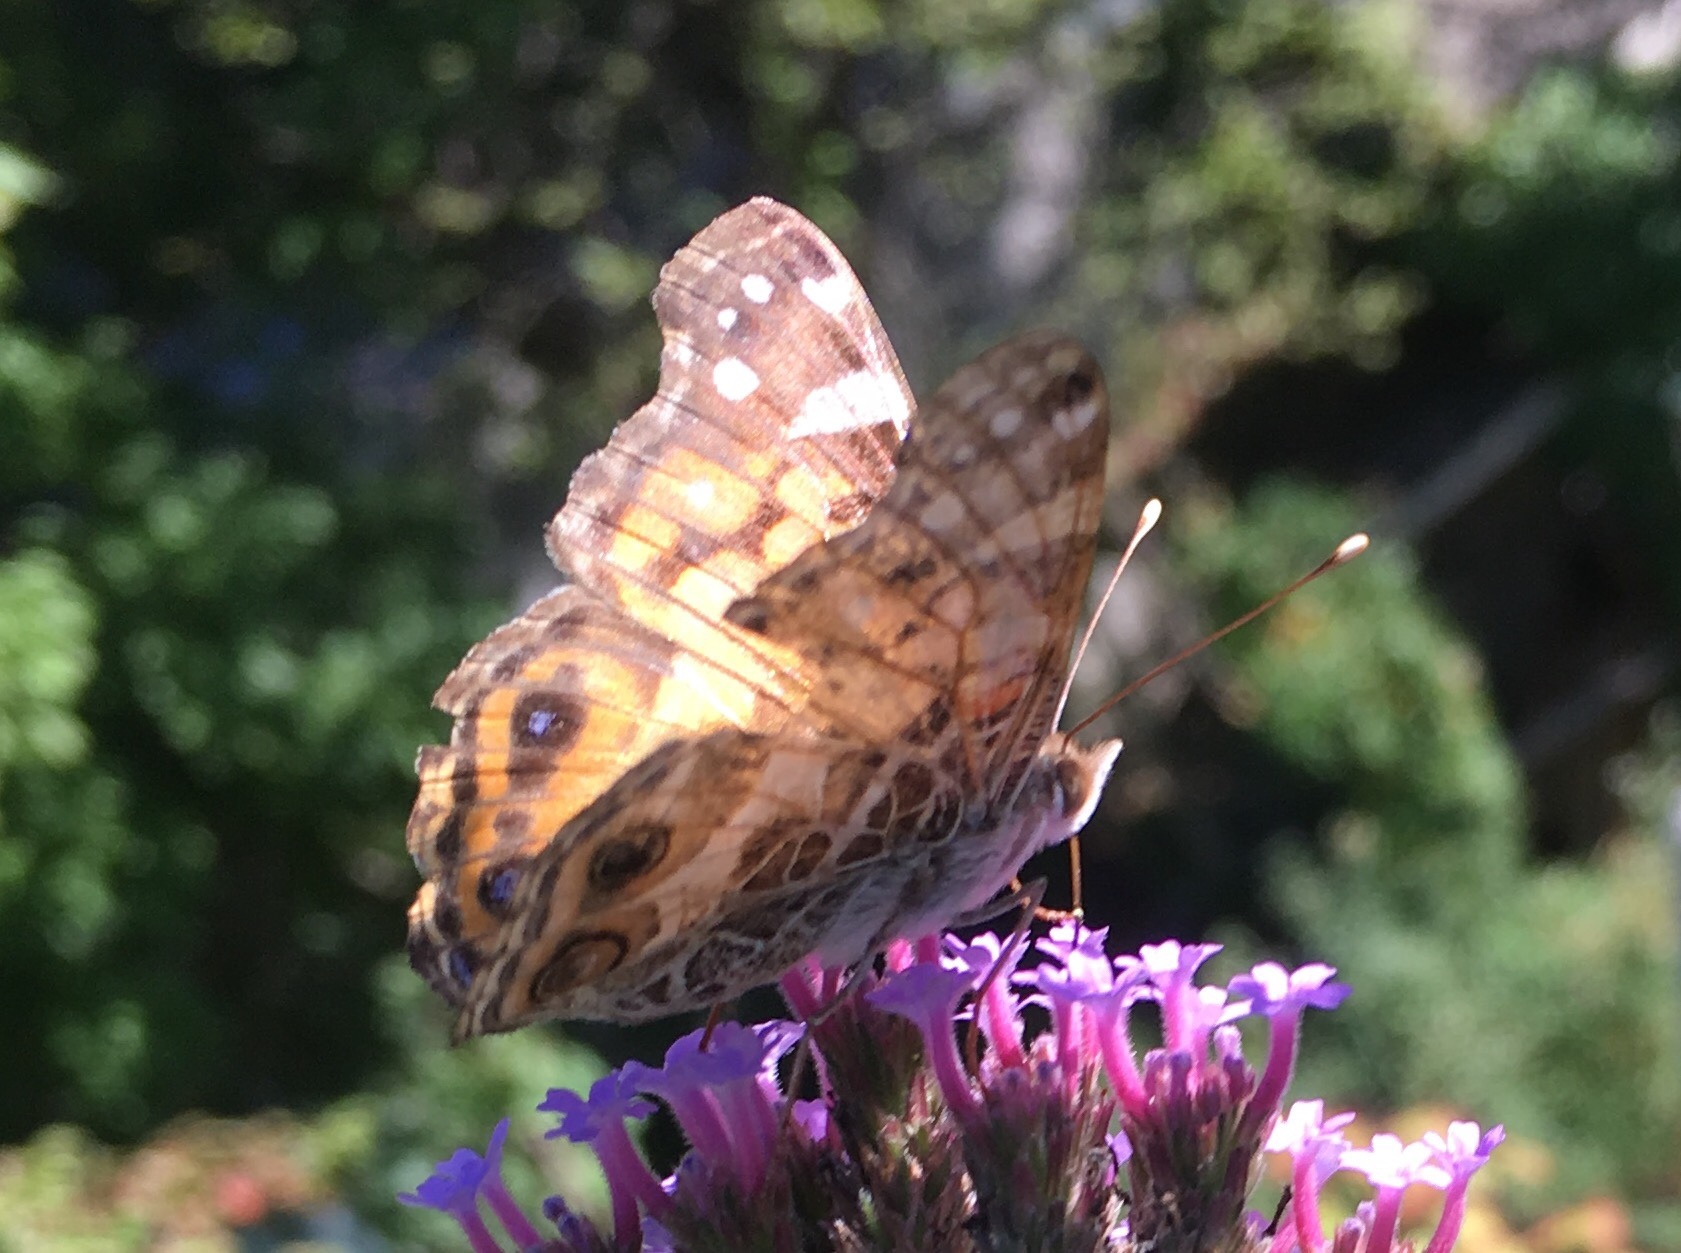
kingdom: Animalia
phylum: Arthropoda
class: Insecta
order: Lepidoptera
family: Nymphalidae
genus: Vanessa
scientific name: Vanessa virginiensis
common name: American lady
